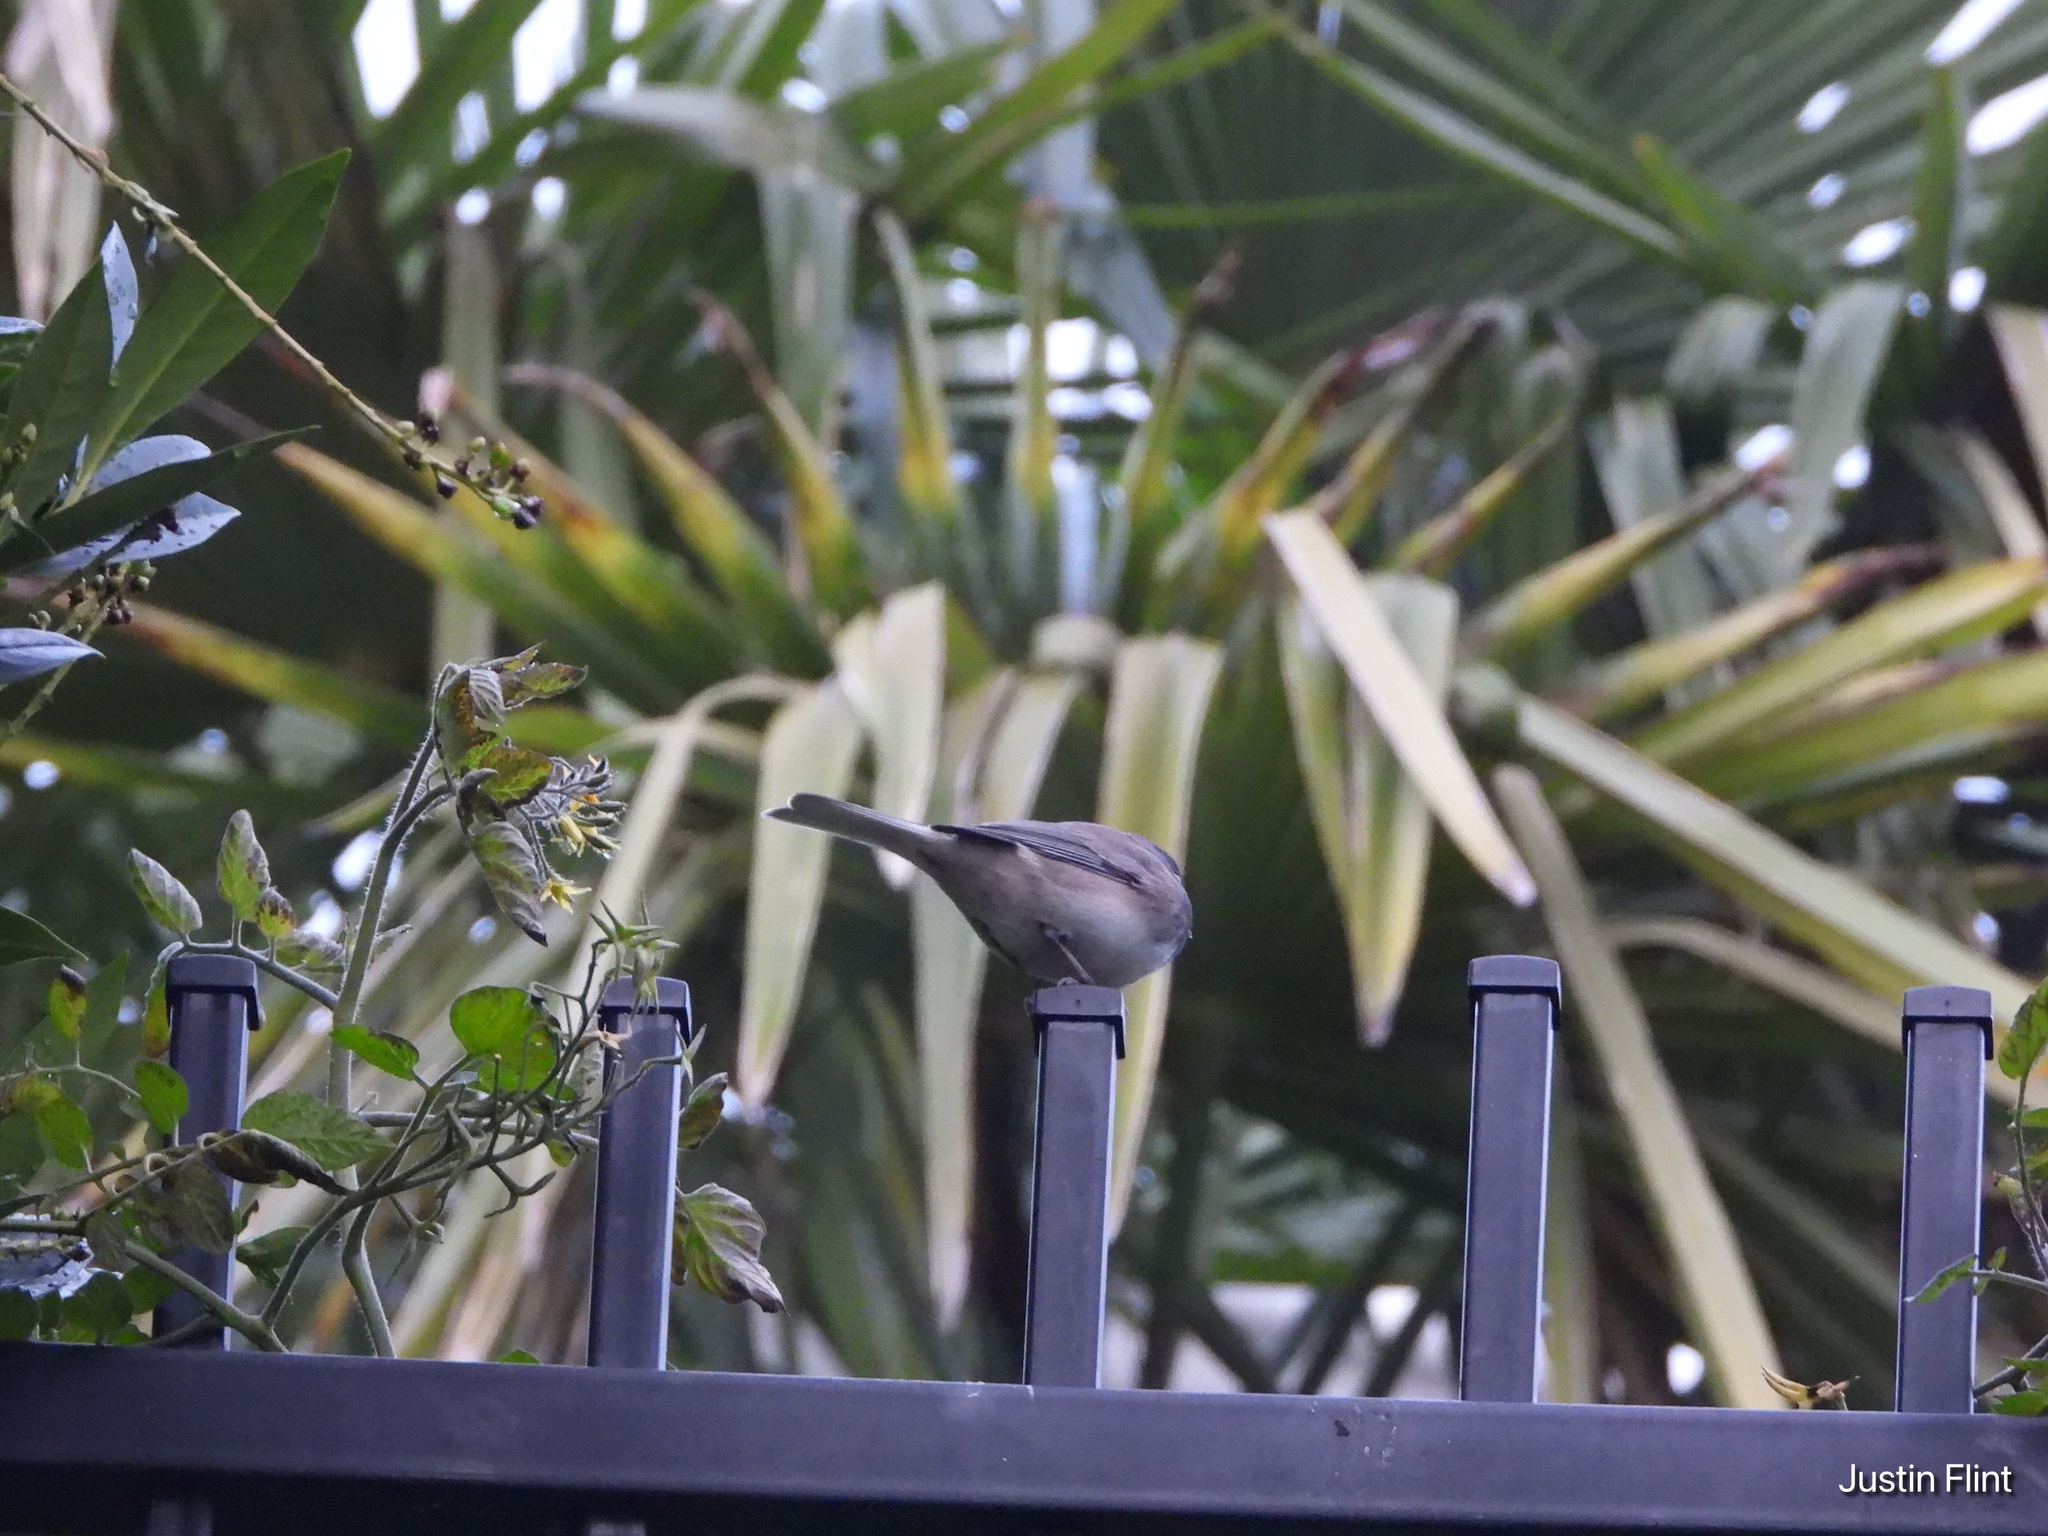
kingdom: Animalia
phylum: Chordata
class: Aves
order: Passeriformes
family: Passerellidae
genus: Junco
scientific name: Junco hyemalis
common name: Dark-eyed junco
